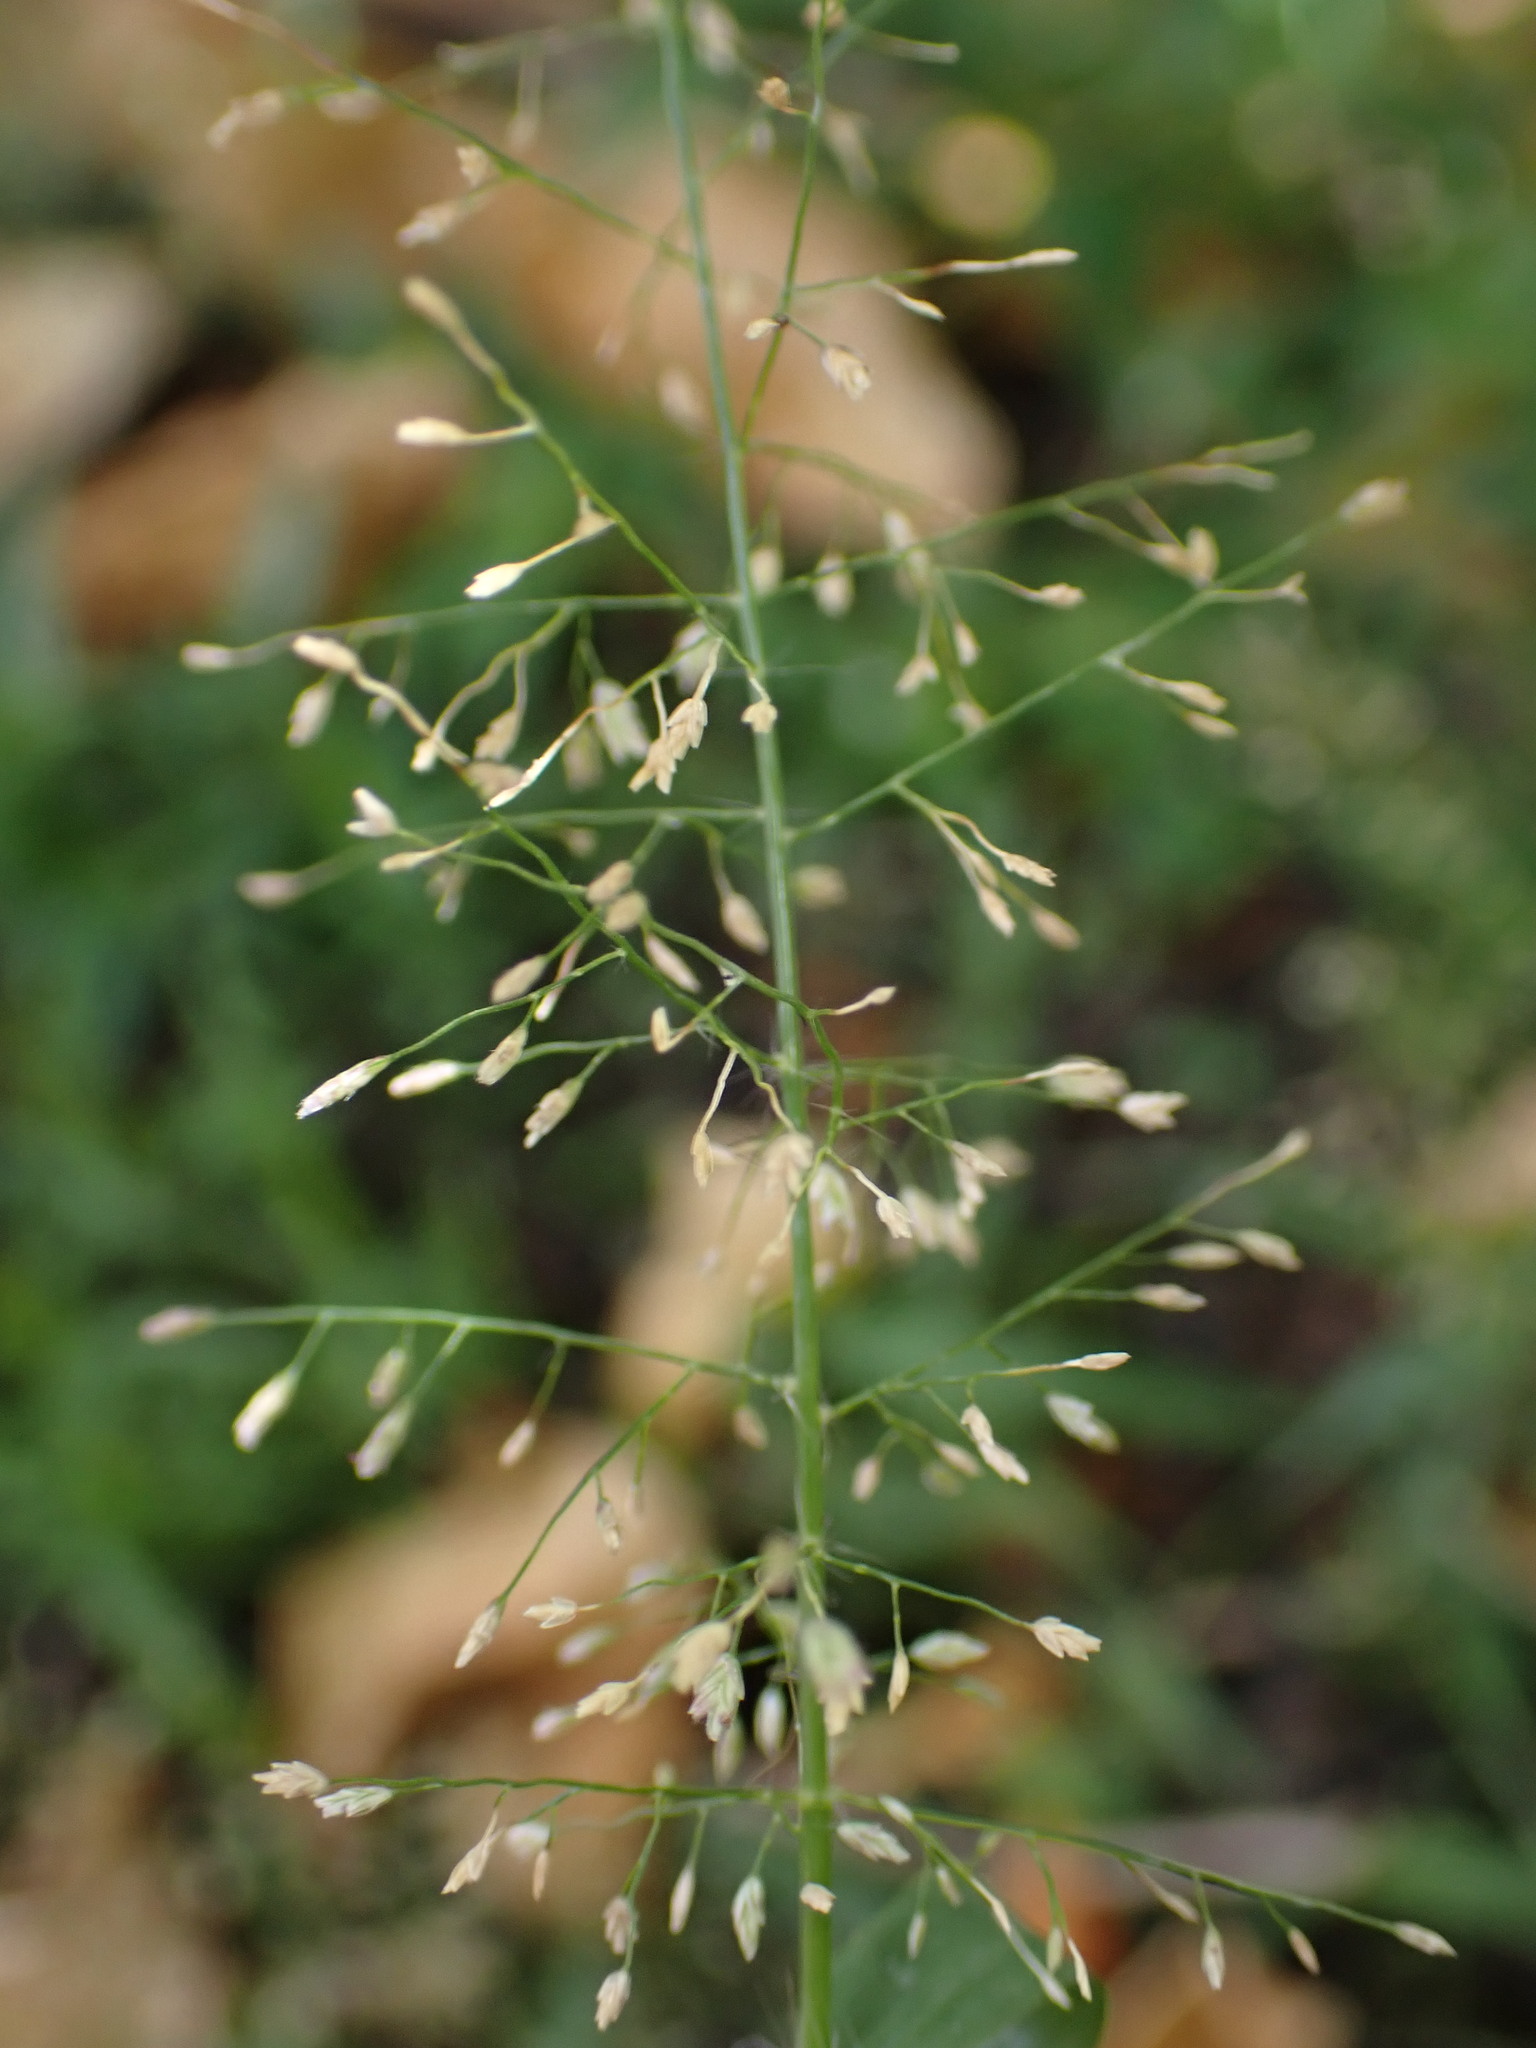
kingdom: Plantae
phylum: Tracheophyta
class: Liliopsida
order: Poales
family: Poaceae
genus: Eragrostis
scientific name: Eragrostis tenella
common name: Japanese lovegrass
